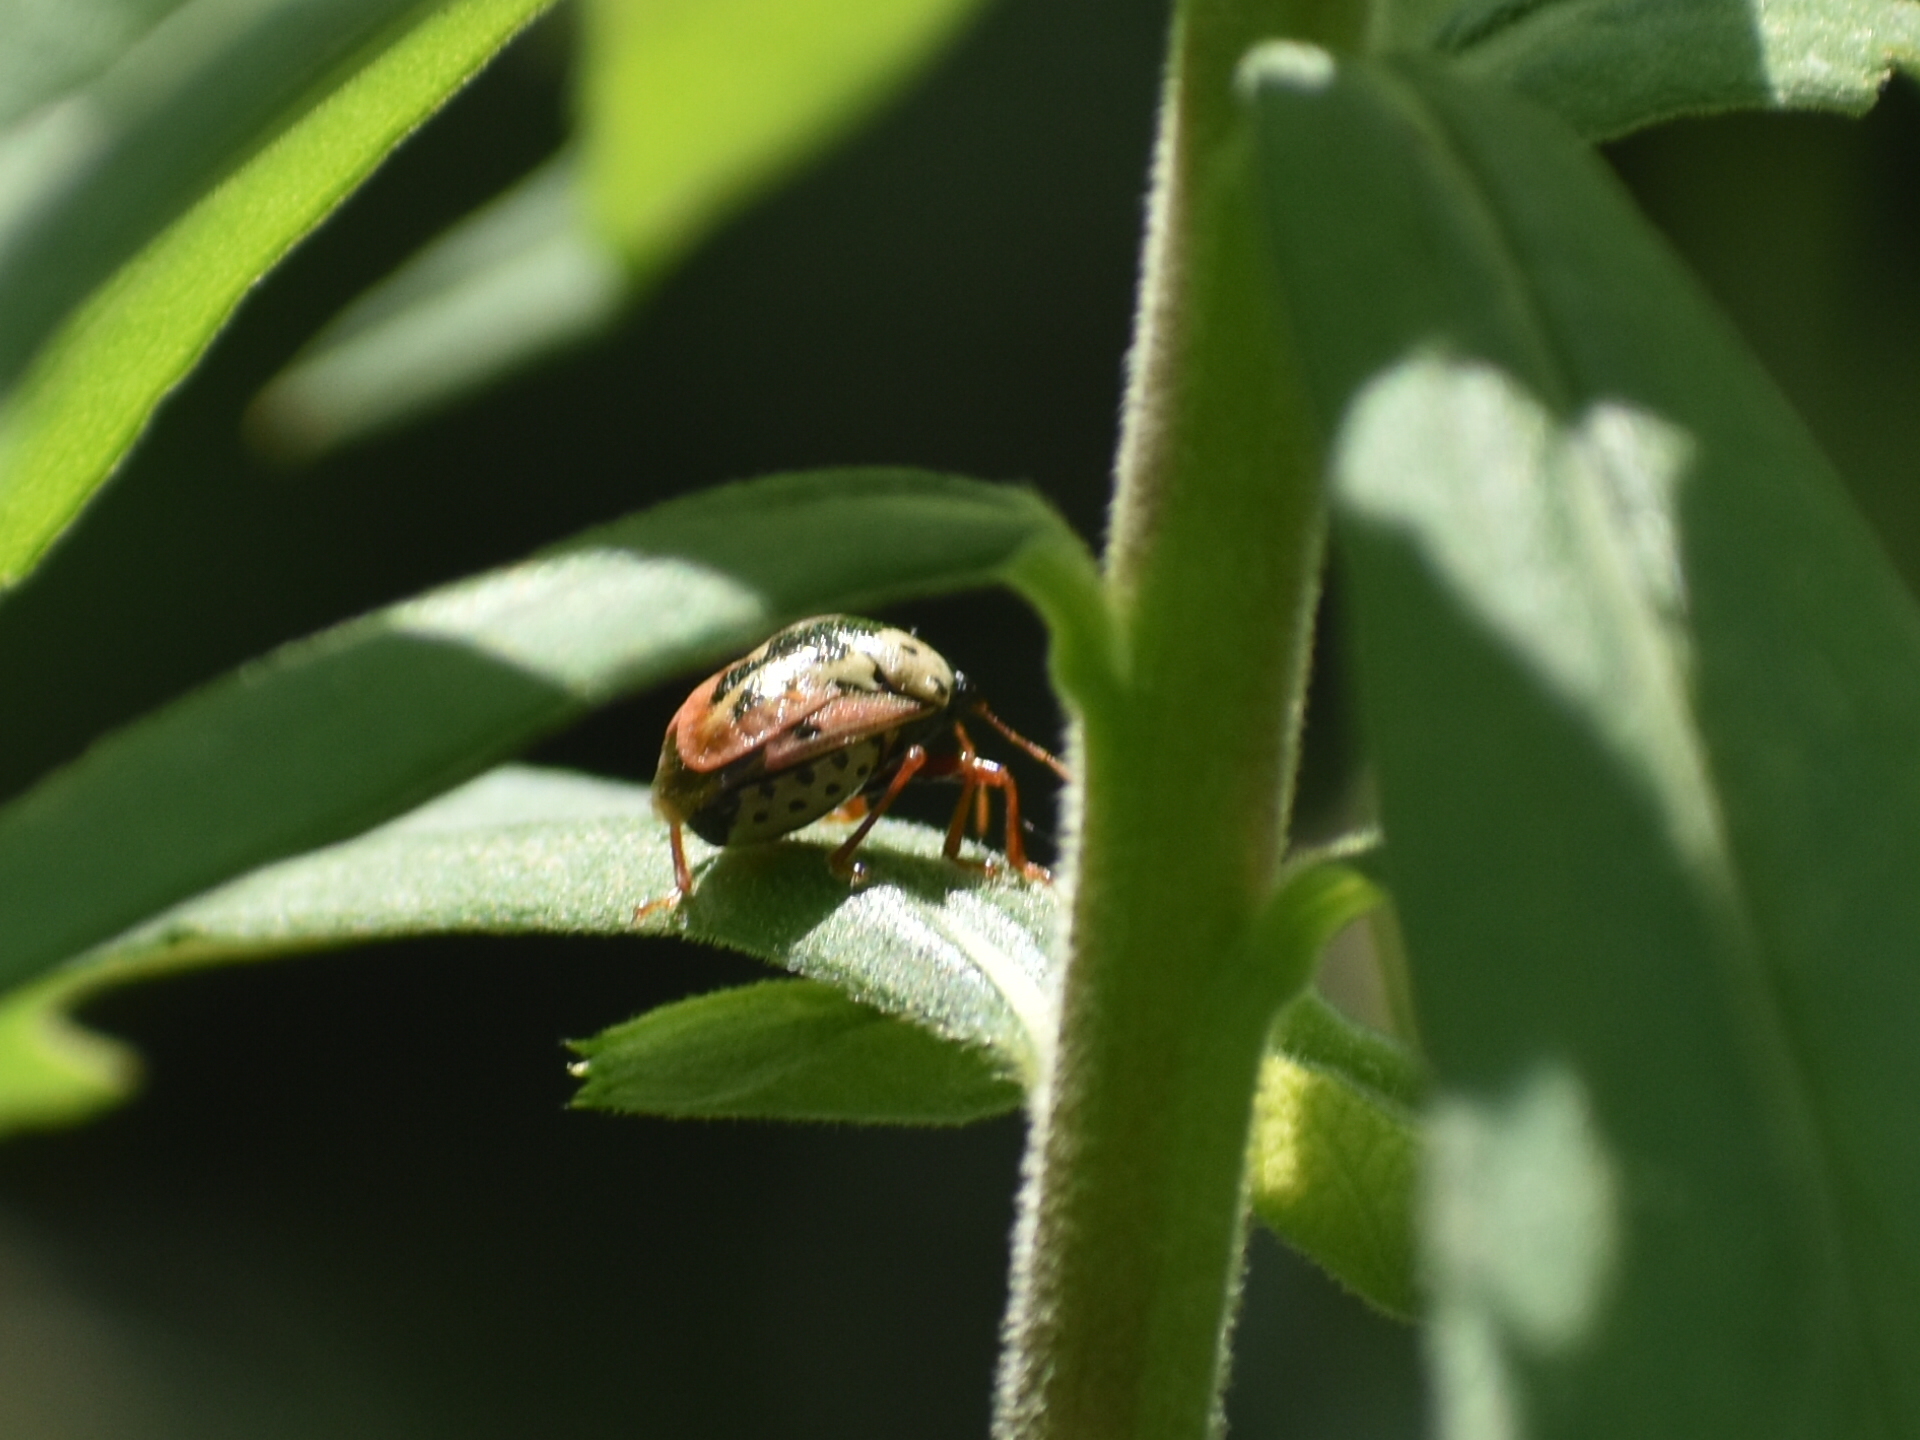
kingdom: Animalia
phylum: Arthropoda
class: Insecta
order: Hemiptera
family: Pentatomidae
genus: Stiretrus
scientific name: Stiretrus anchorago
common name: Anchor stink bug
